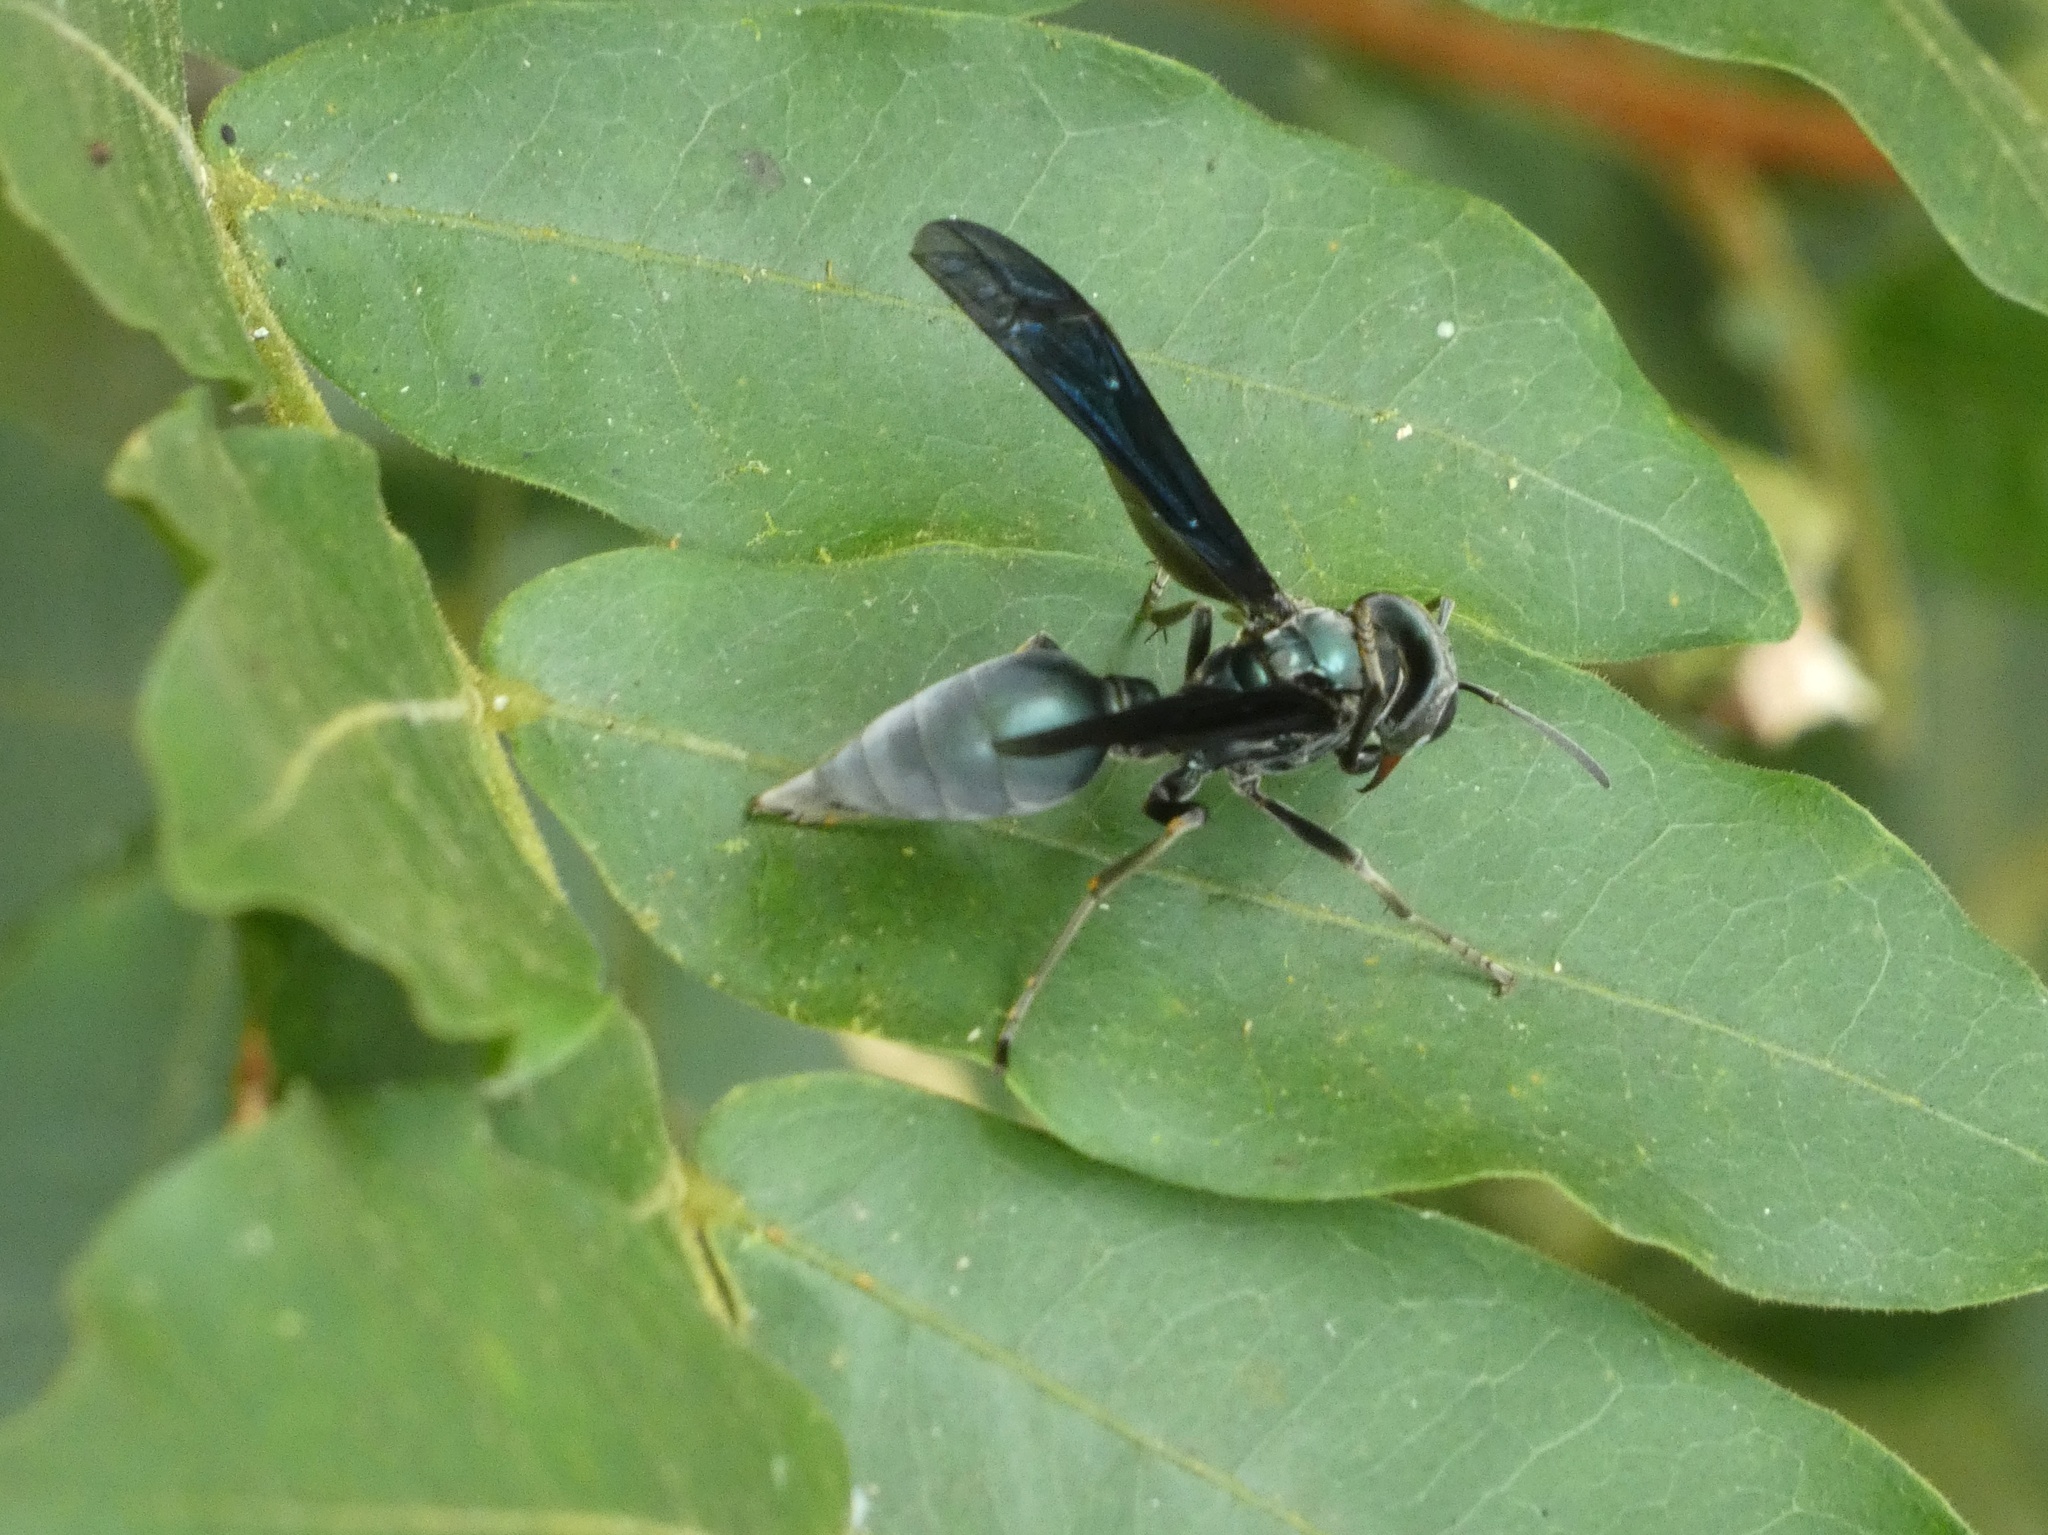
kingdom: Animalia
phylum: Arthropoda
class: Insecta
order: Hymenoptera
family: Vespidae
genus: Synoeca
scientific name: Synoeca septentrionalis
